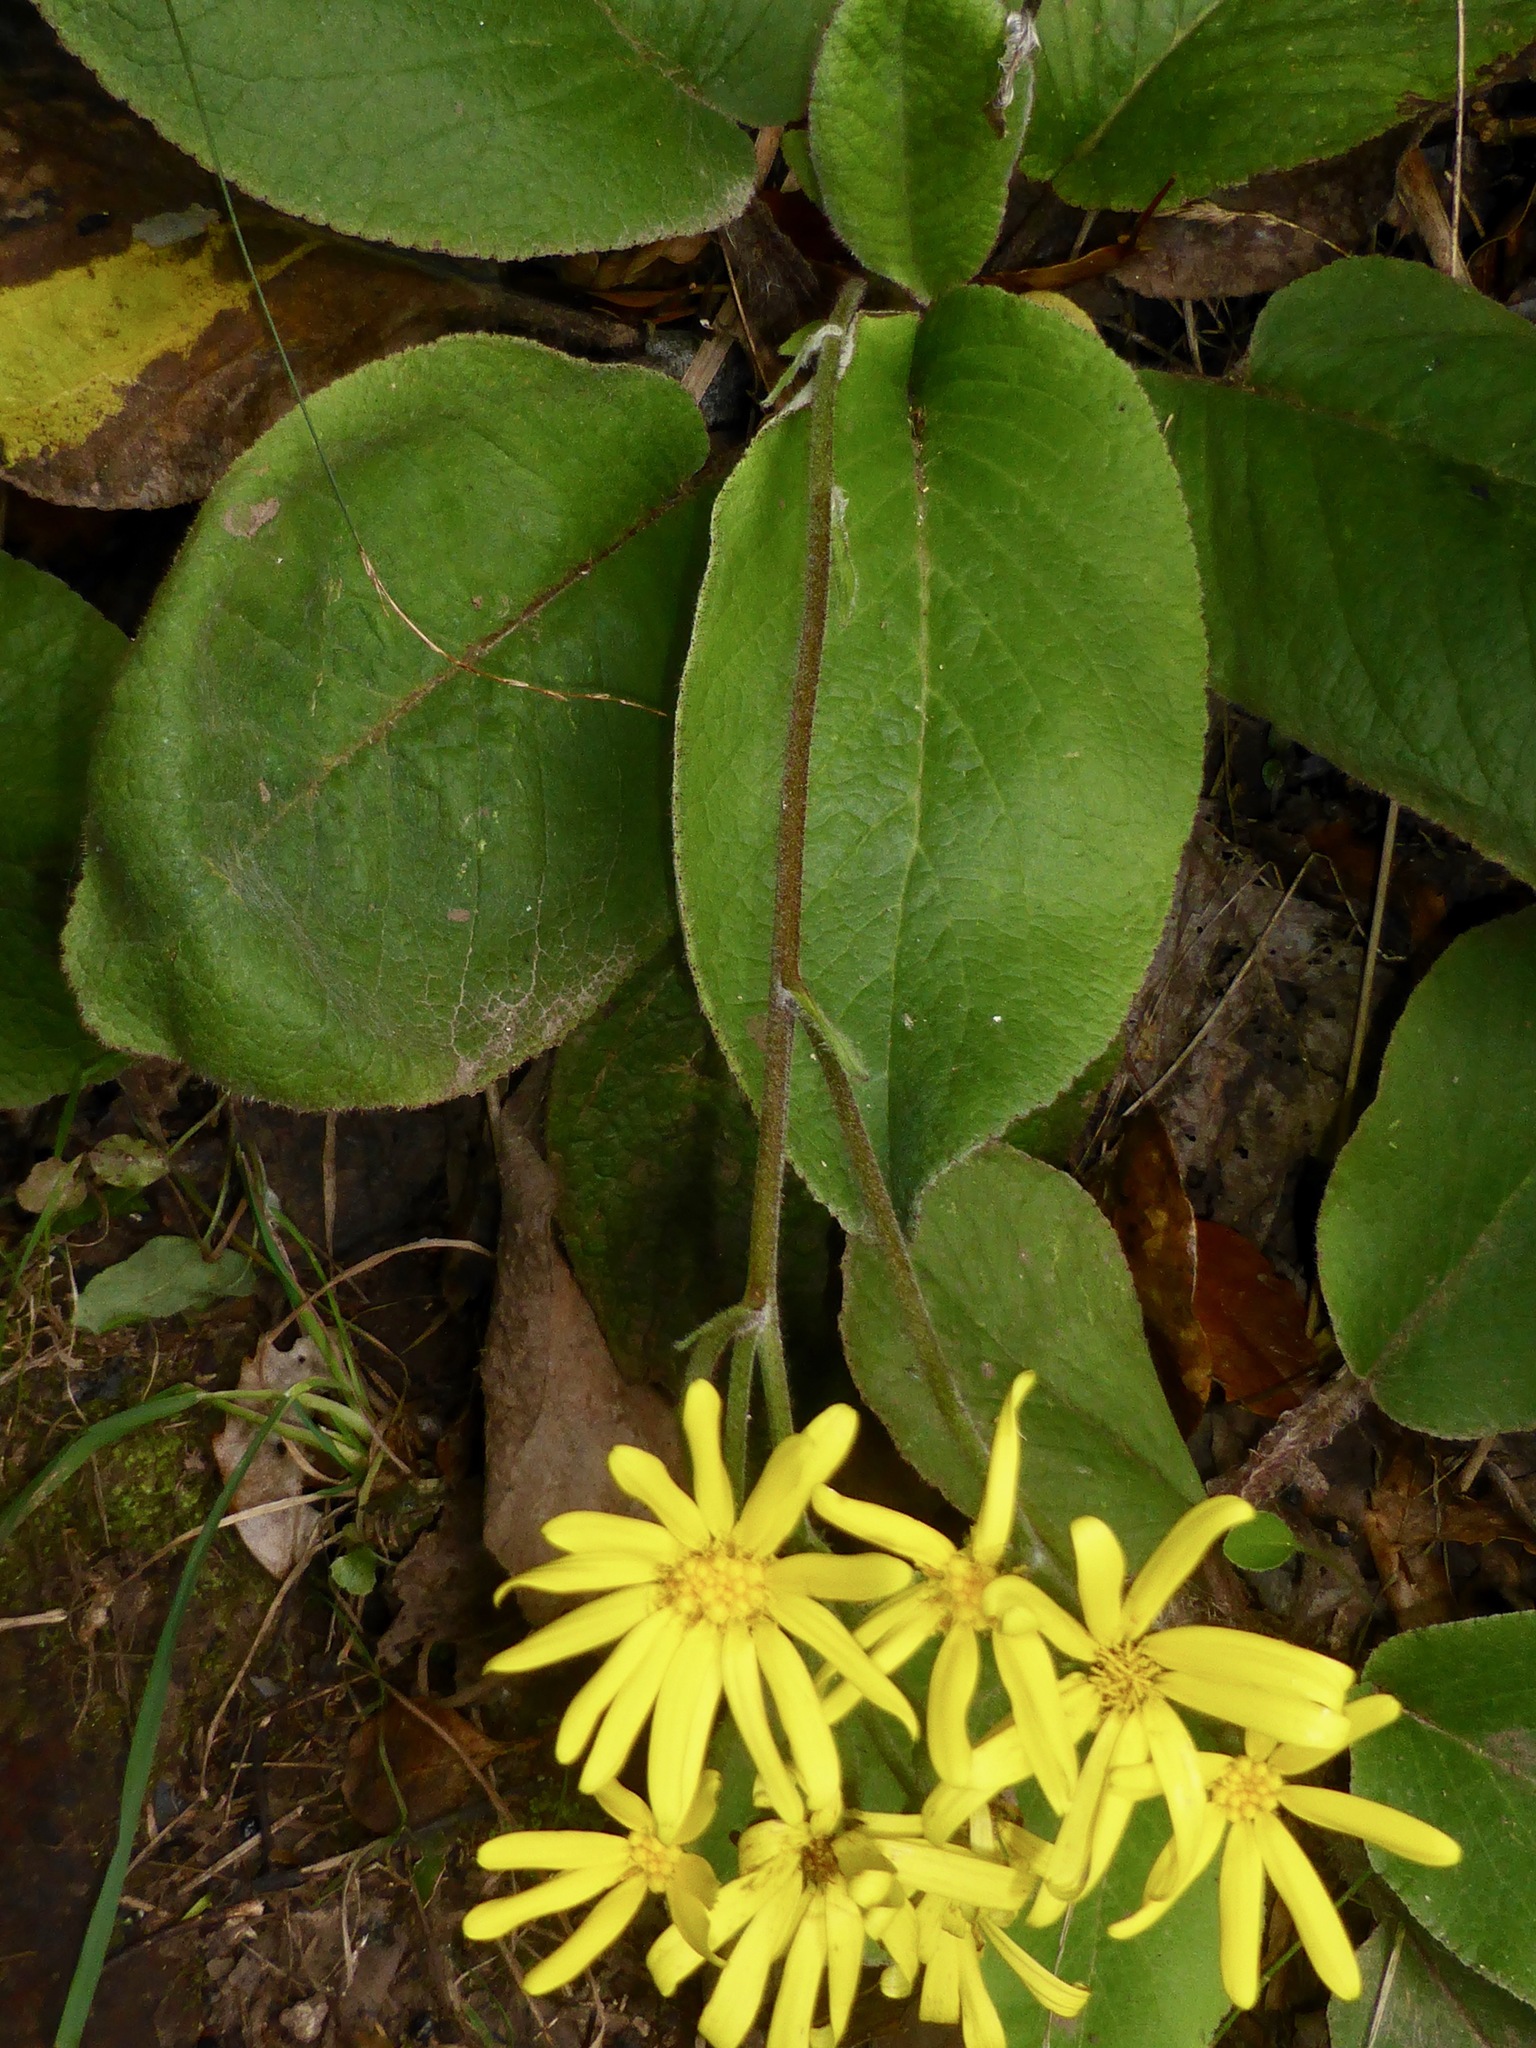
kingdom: Plantae
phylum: Tracheophyta
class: Magnoliopsida
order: Asterales
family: Asteraceae
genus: Brachyglottis
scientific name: Brachyglottis lagopus
